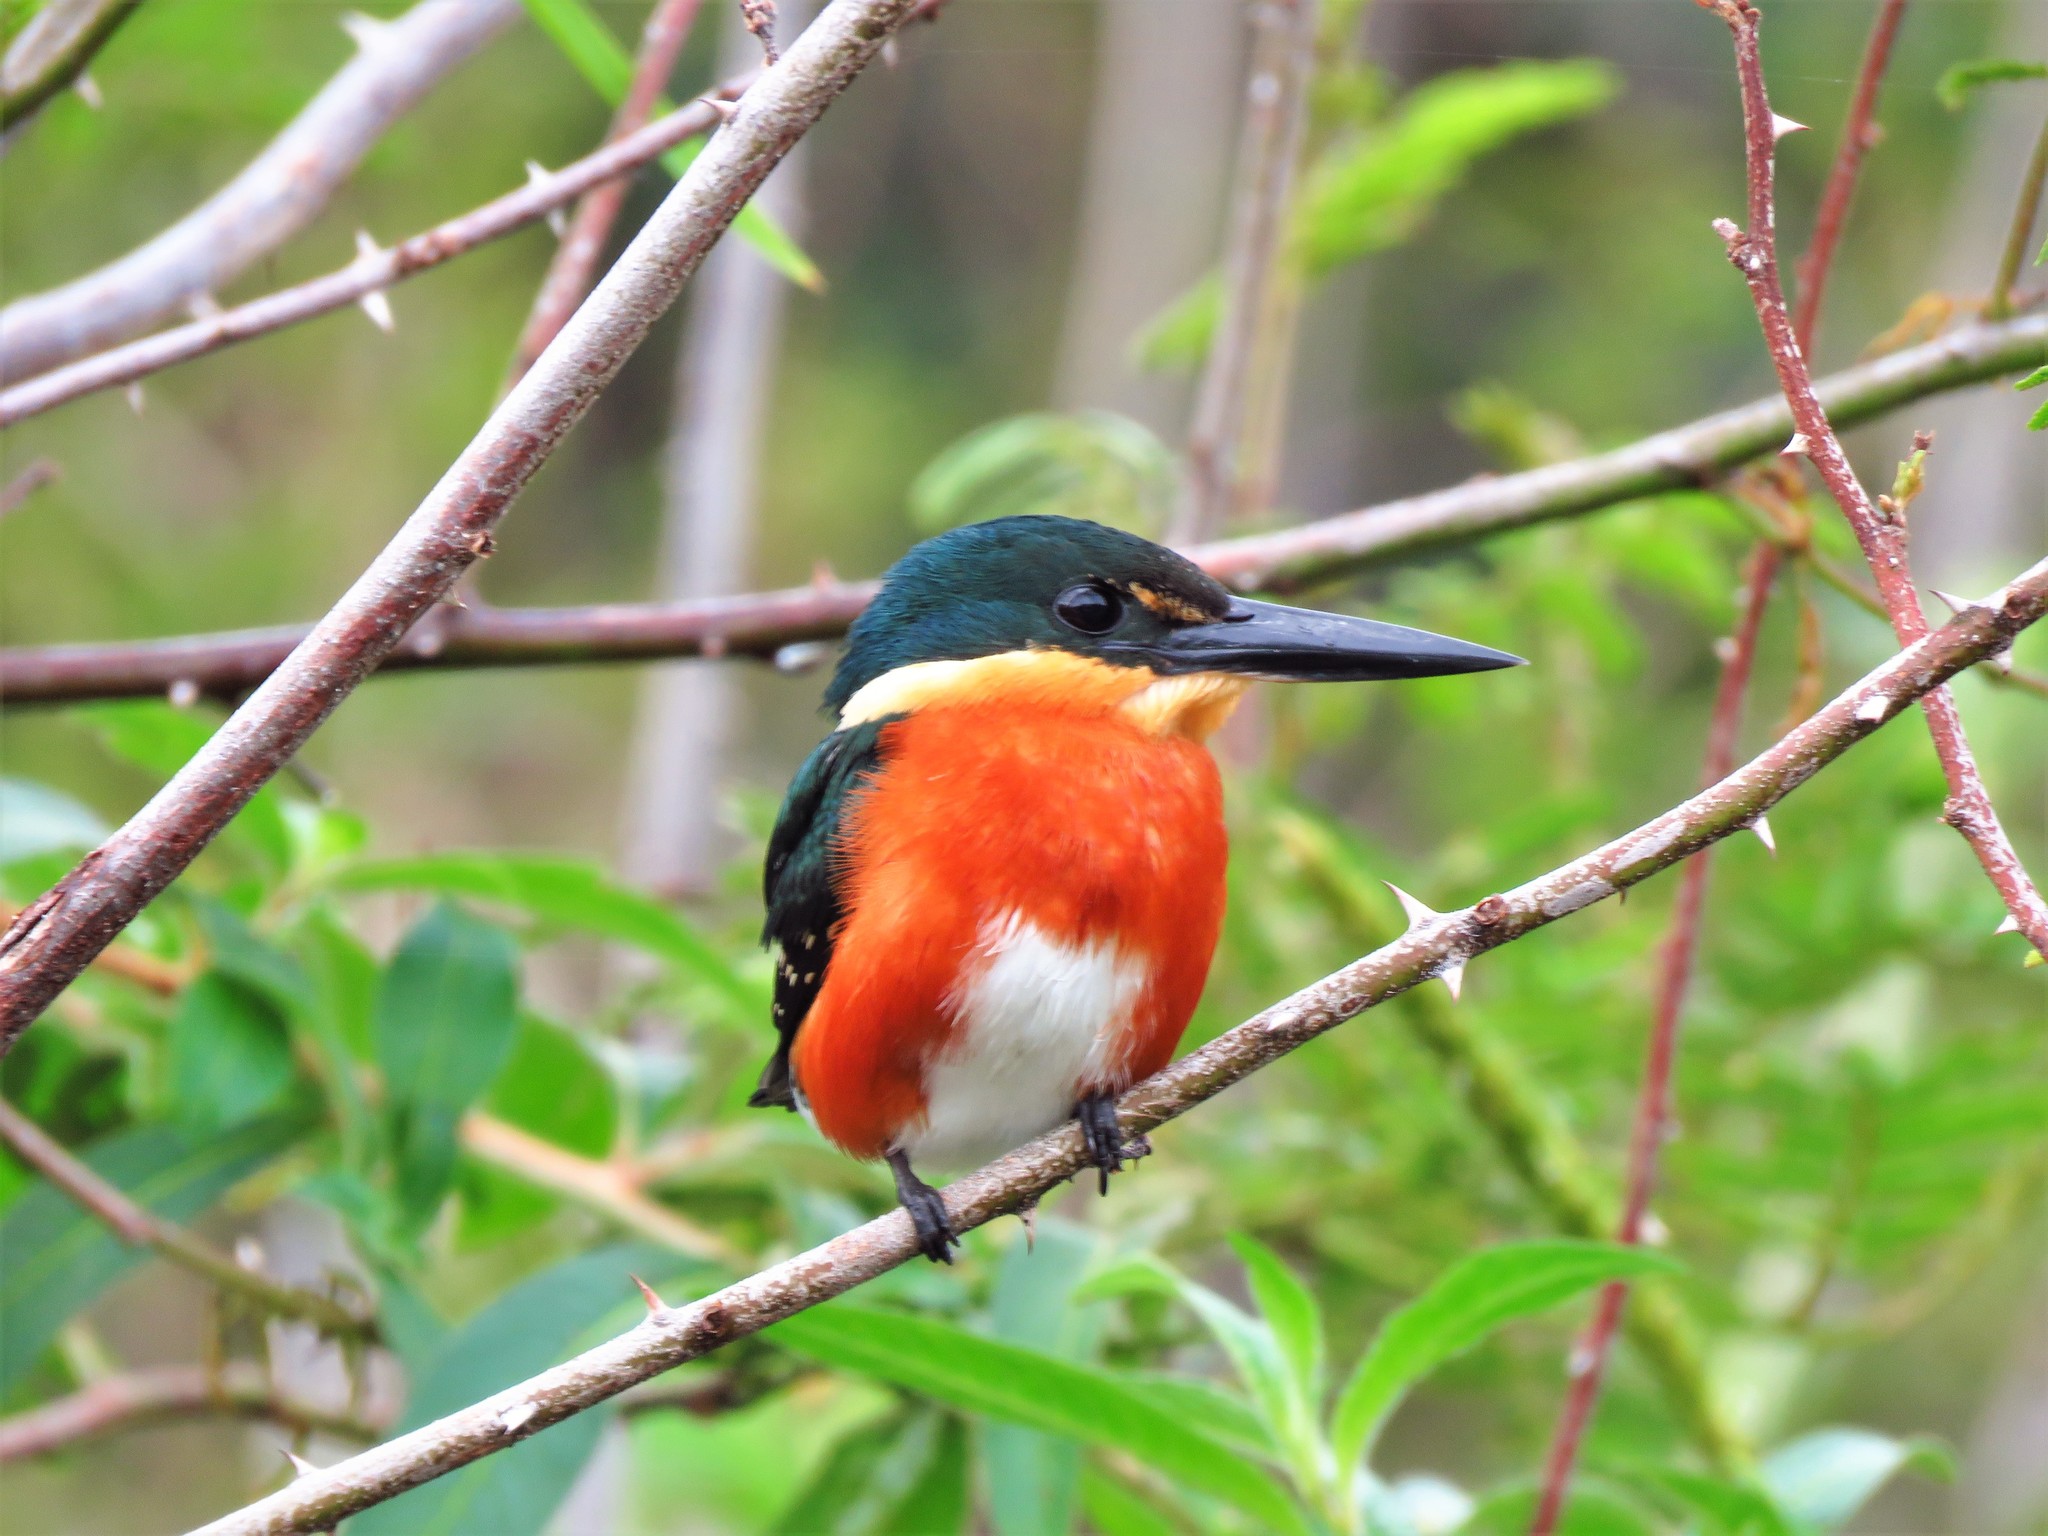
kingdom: Animalia
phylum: Chordata
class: Aves
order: Coraciiformes
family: Alcedinidae
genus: Chloroceryle
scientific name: Chloroceryle aenea
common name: American pygmy kingfisher
